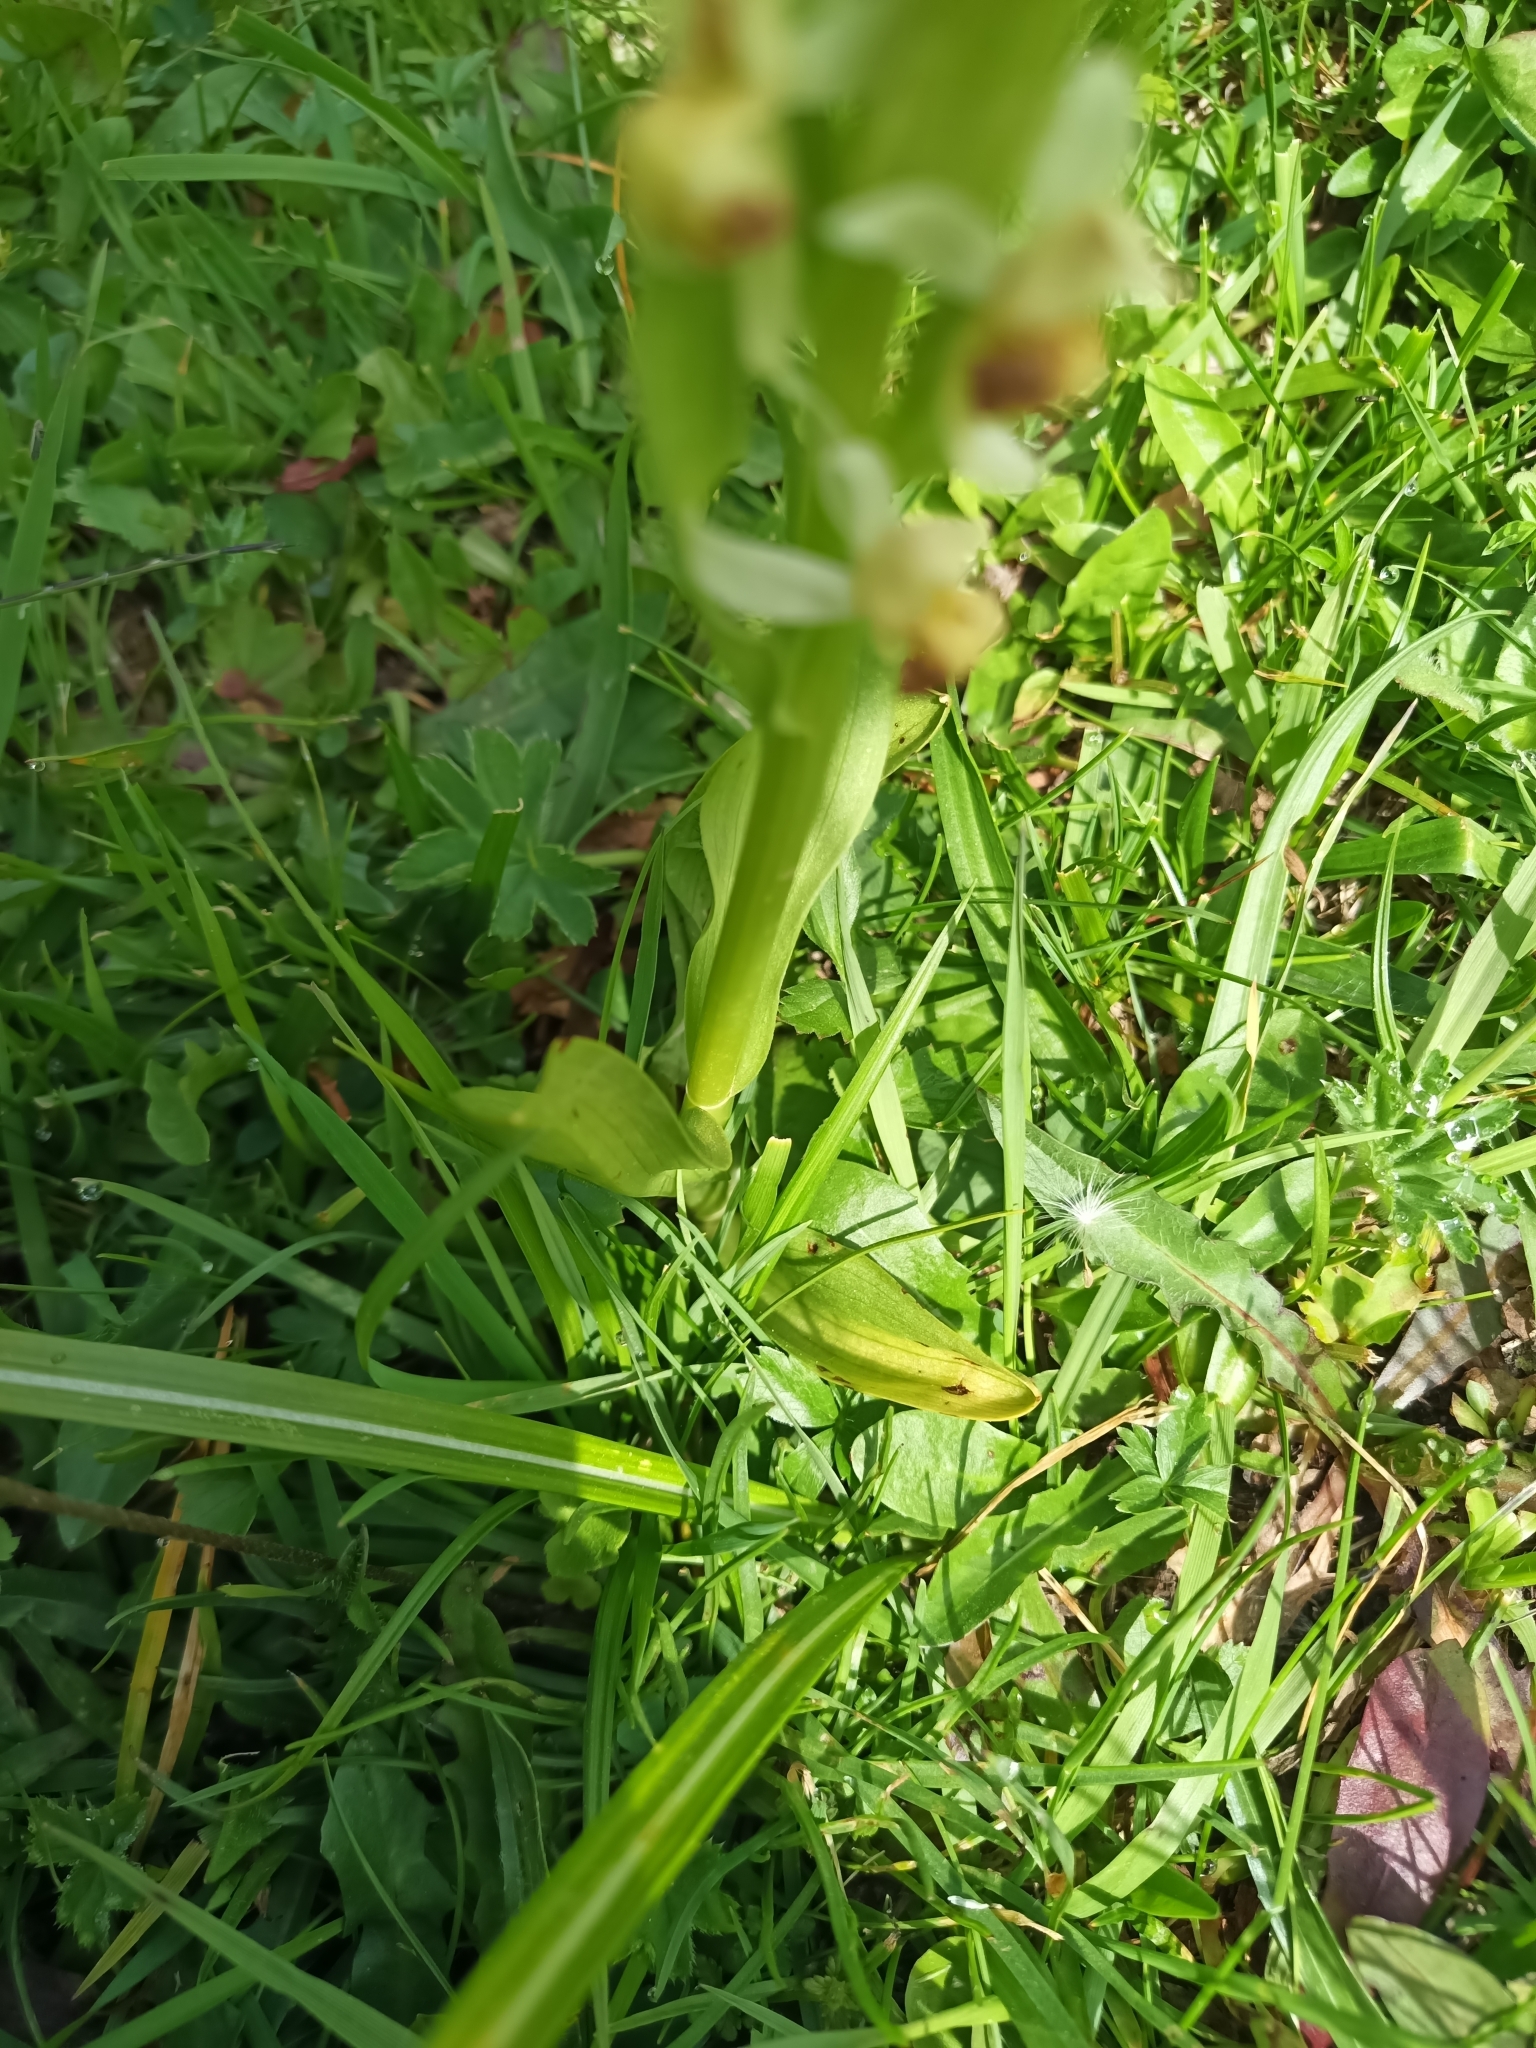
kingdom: Plantae
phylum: Tracheophyta
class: Liliopsida
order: Asparagales
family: Orchidaceae
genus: Dactylorhiza
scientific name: Dactylorhiza sambucina
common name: Elder-flowered orchid
